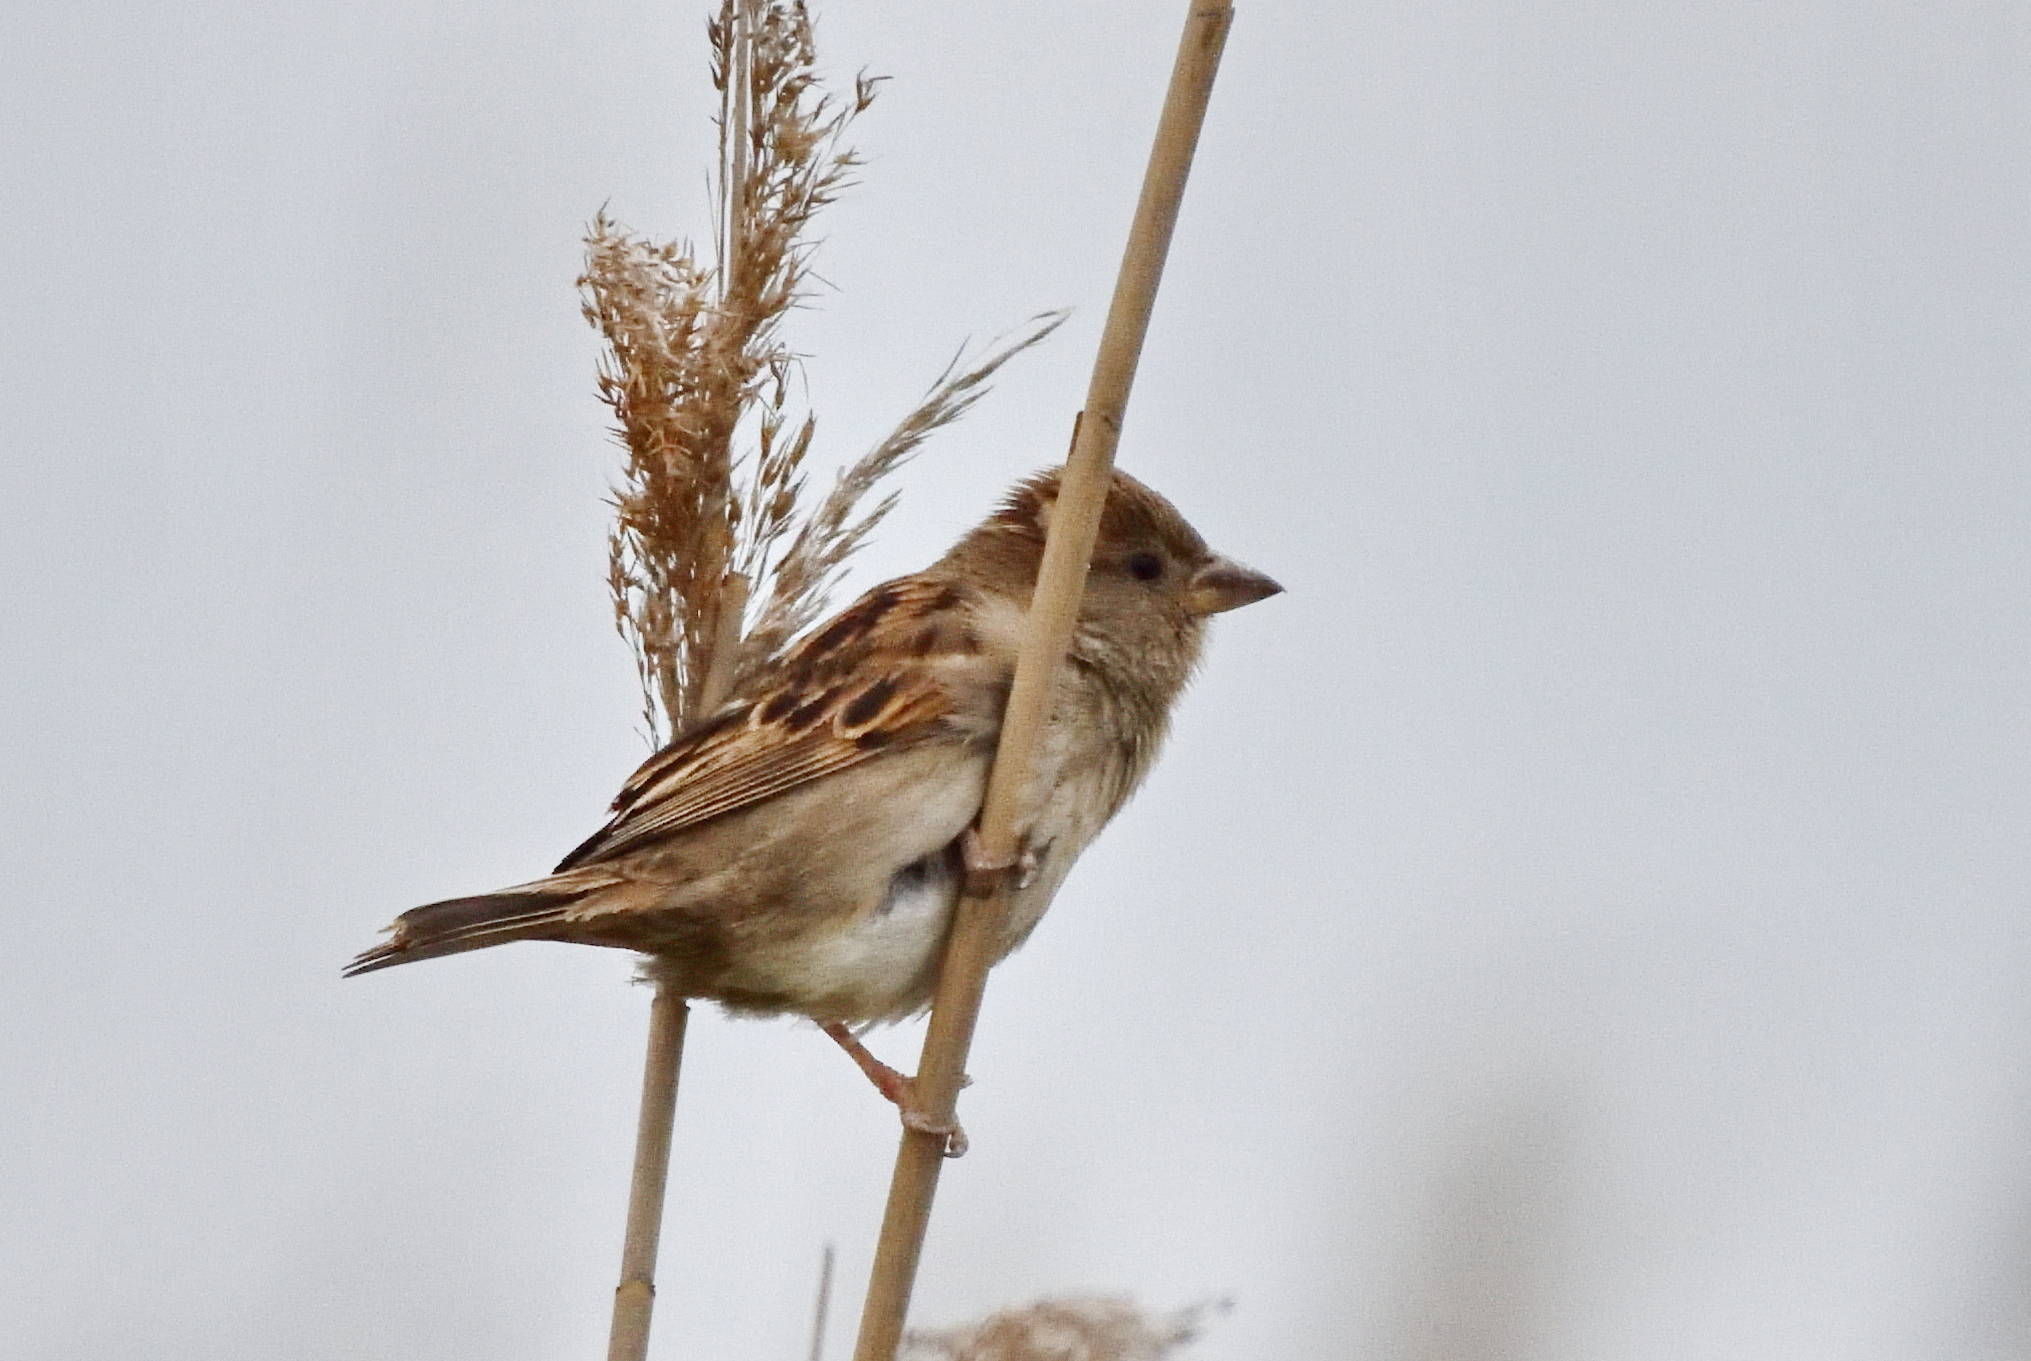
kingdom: Animalia
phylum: Chordata
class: Aves
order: Passeriformes
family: Passeridae
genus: Passer
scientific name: Passer domesticus
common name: House sparrow
